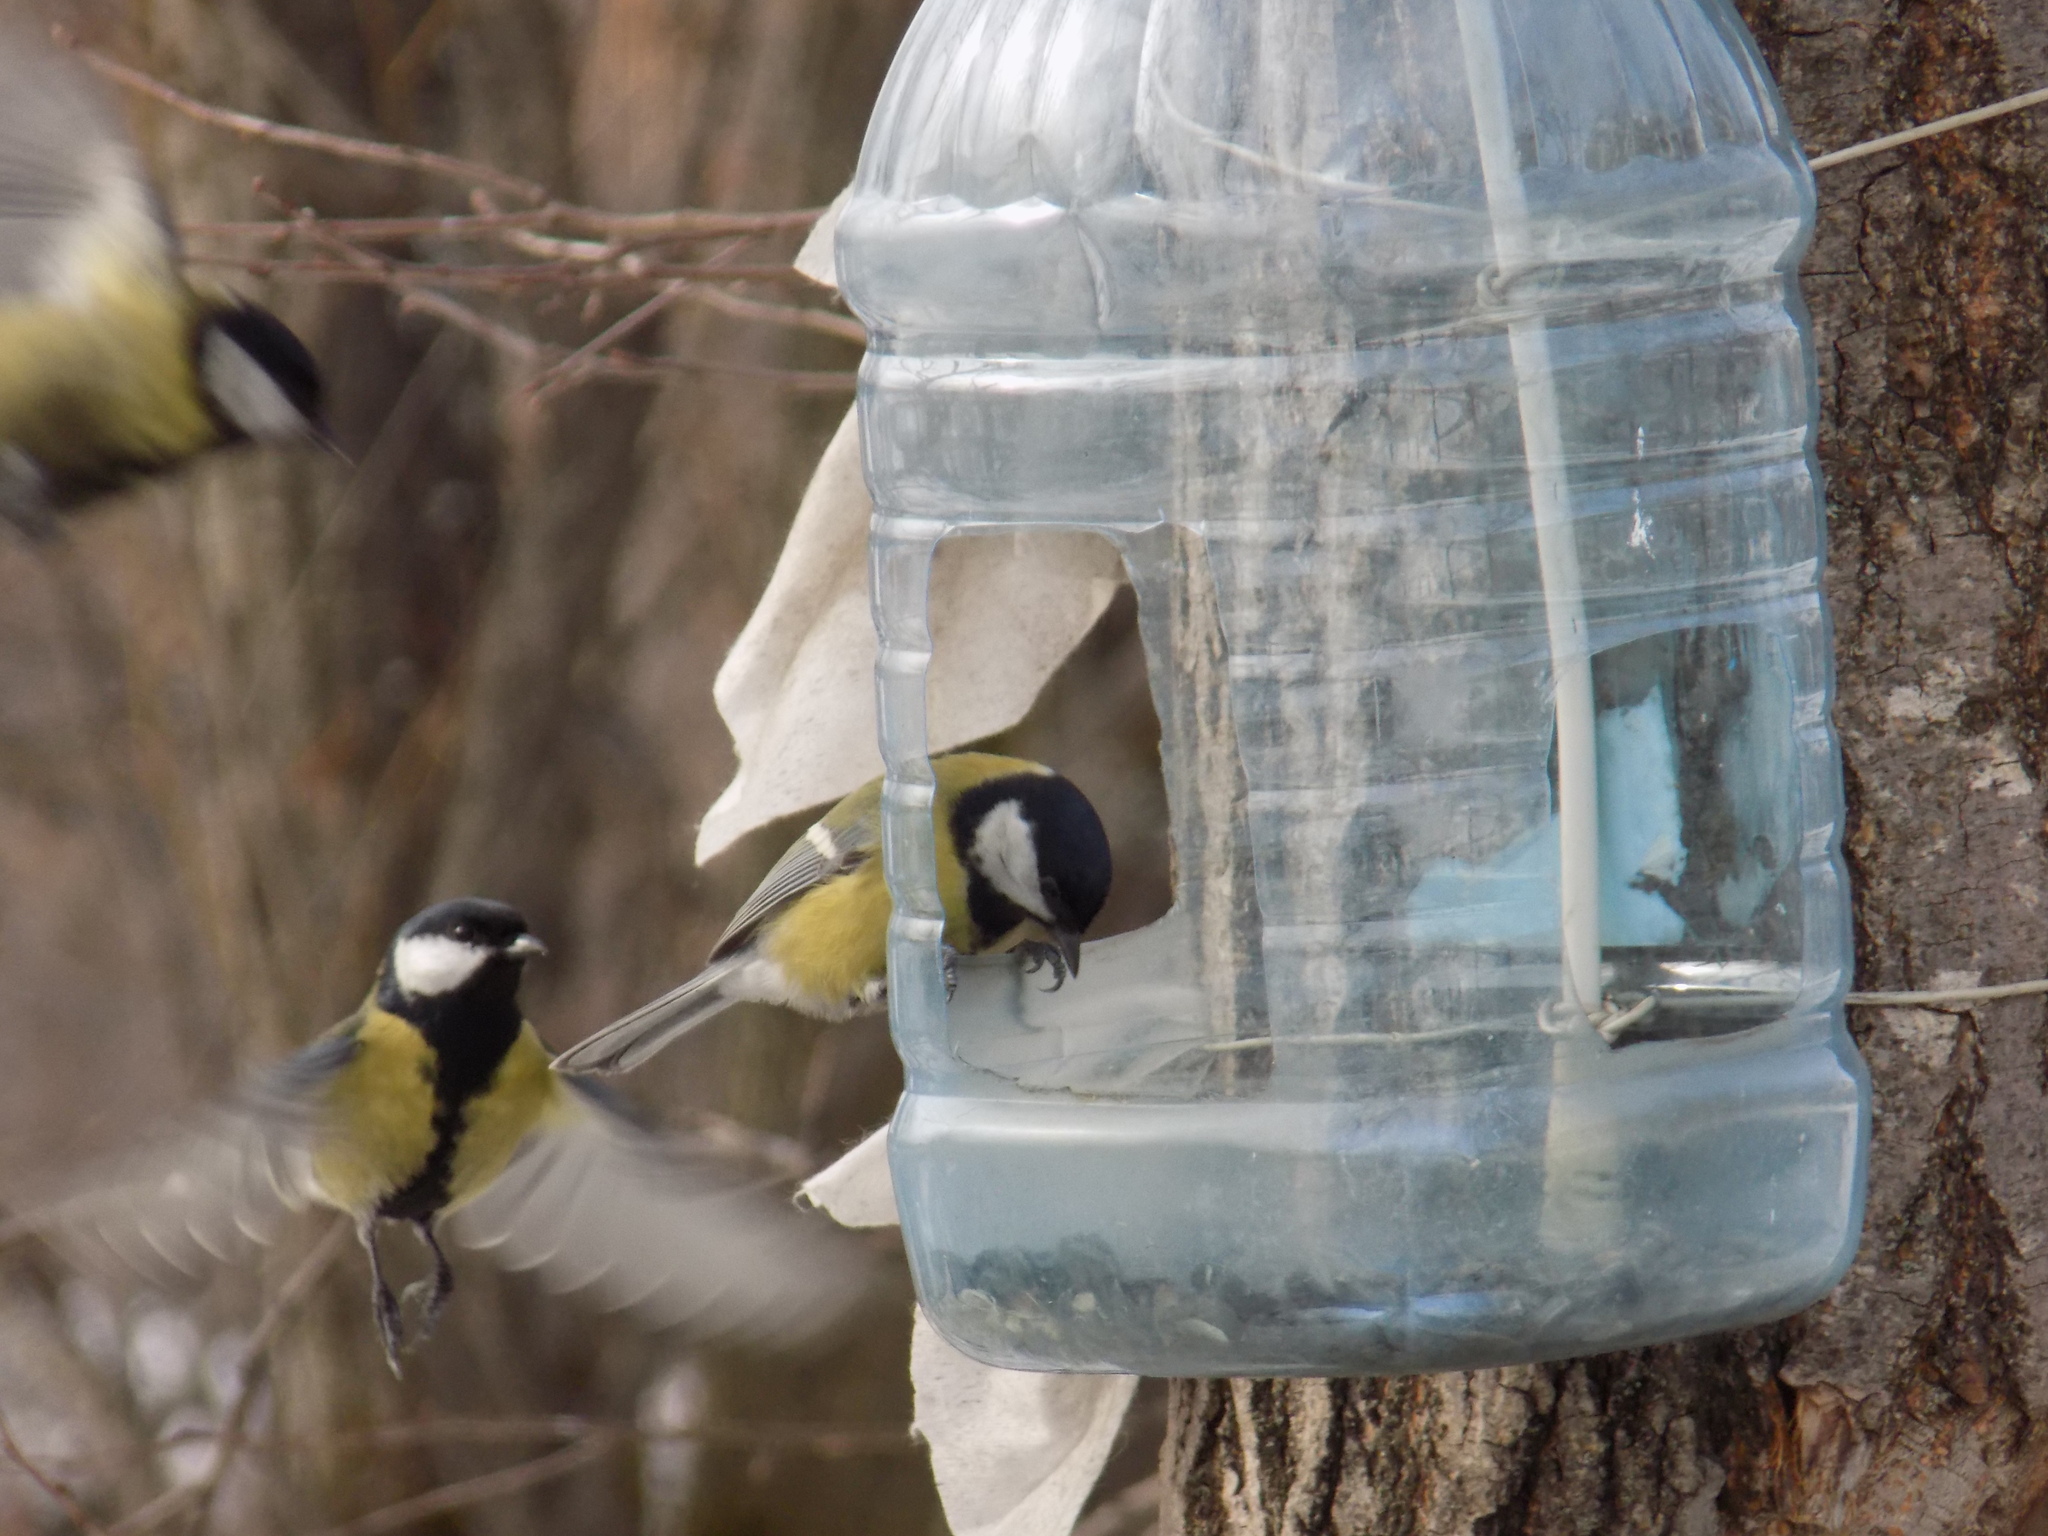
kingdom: Animalia
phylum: Chordata
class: Aves
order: Passeriformes
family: Paridae
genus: Parus
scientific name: Parus major
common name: Great tit
